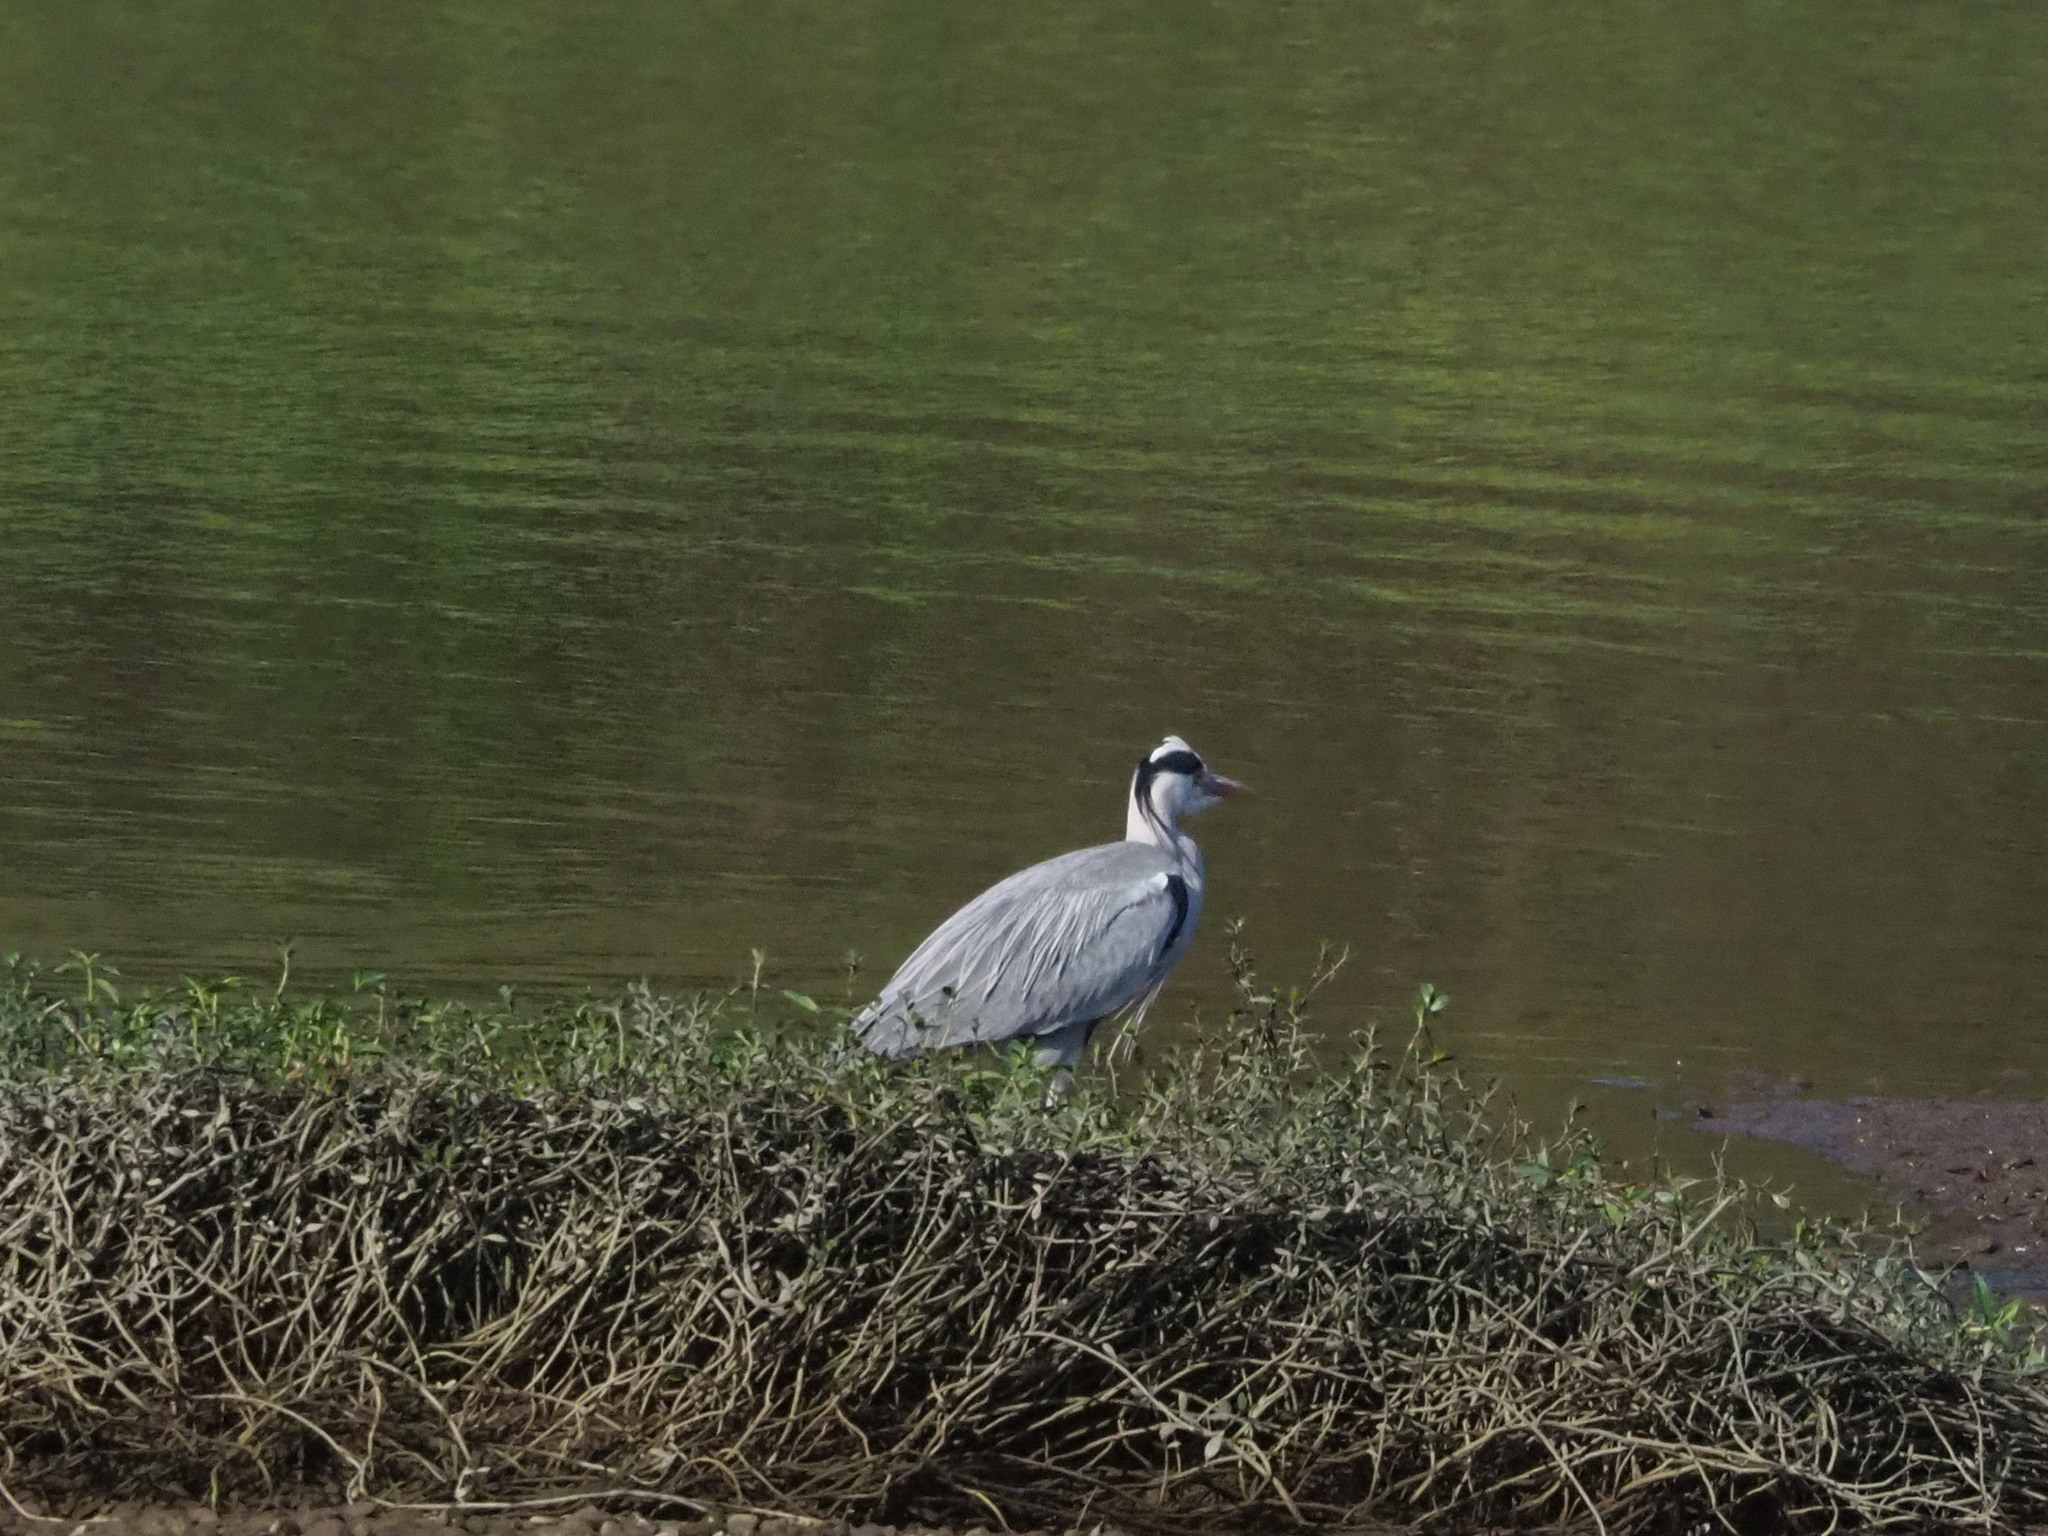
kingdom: Animalia
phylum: Chordata
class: Aves
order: Pelecaniformes
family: Ardeidae
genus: Ardea
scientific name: Ardea cinerea
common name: Grey heron
